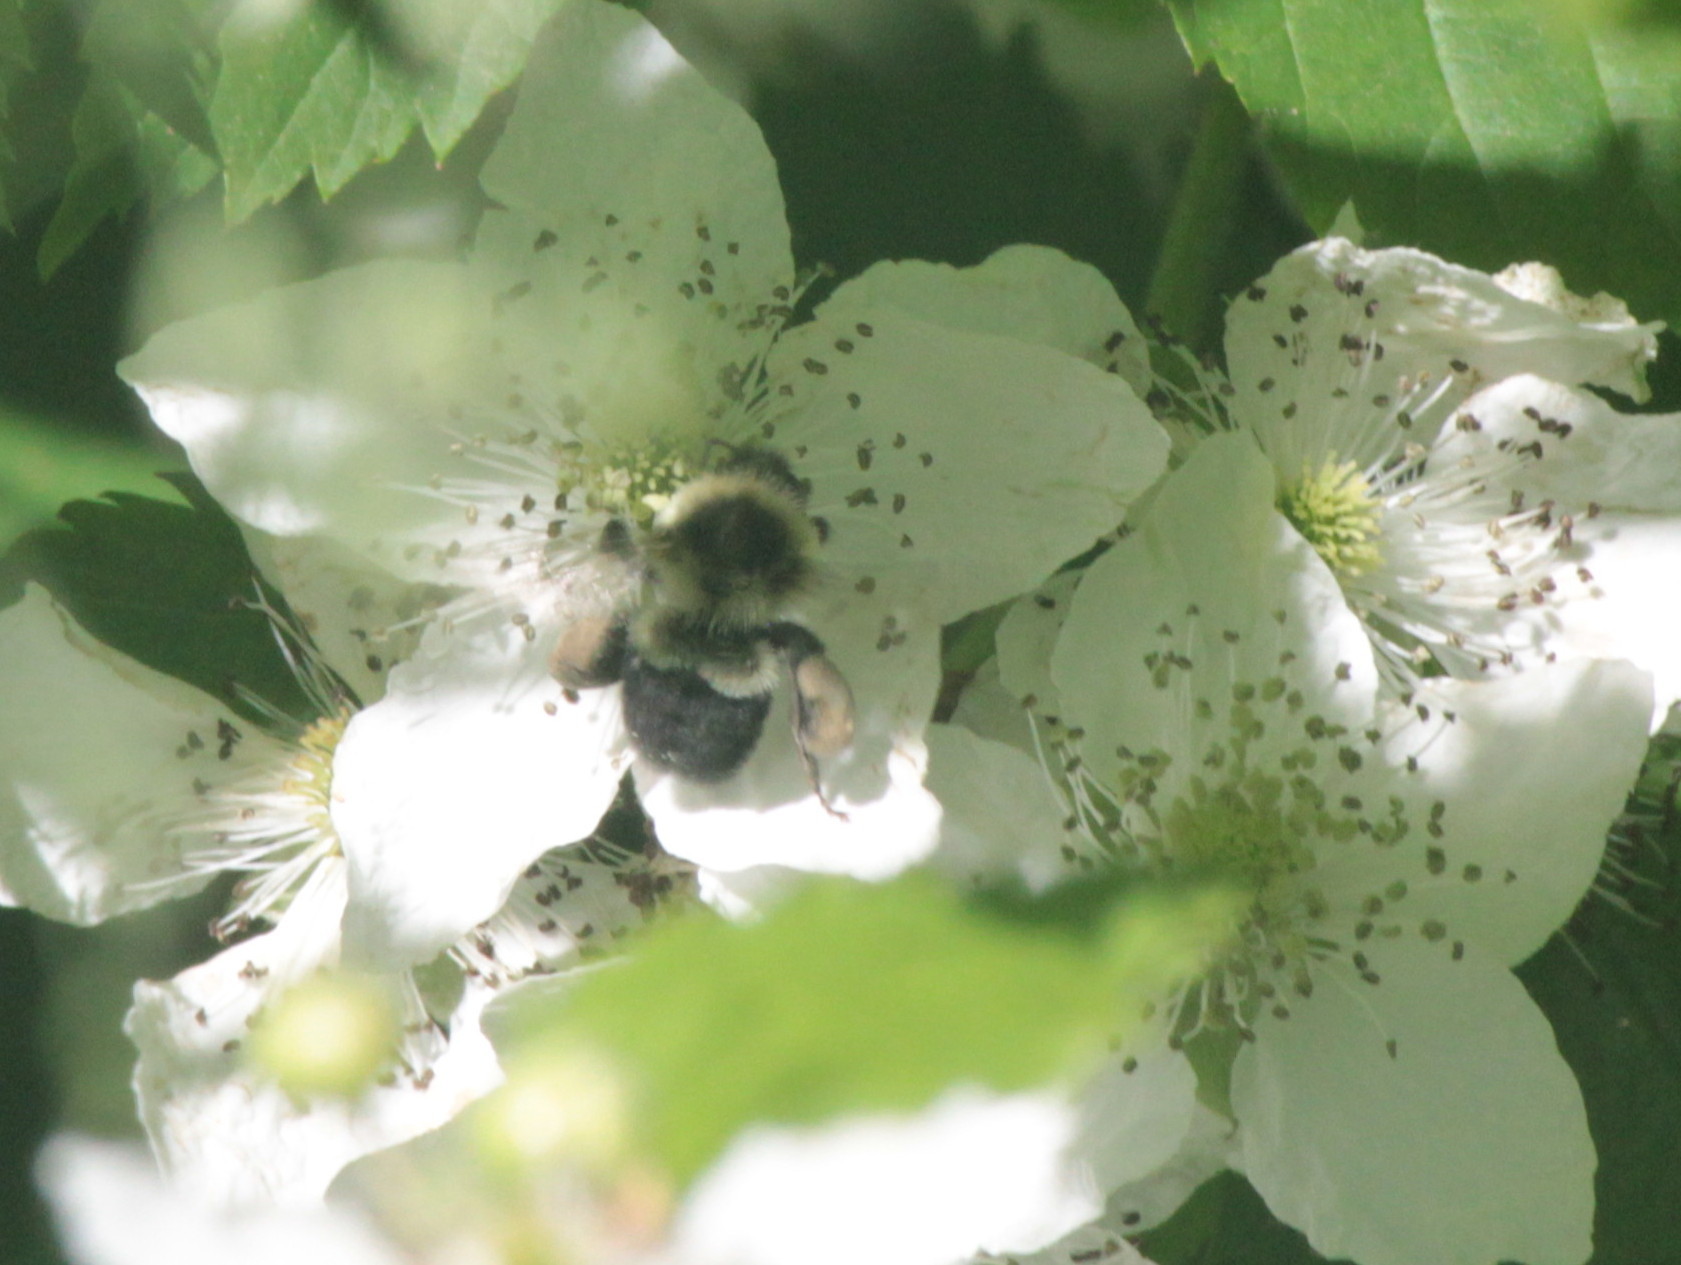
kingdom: Animalia
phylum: Arthropoda
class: Insecta
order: Hymenoptera
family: Apidae
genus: Bombus
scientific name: Bombus impatiens
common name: Common eastern bumble bee
